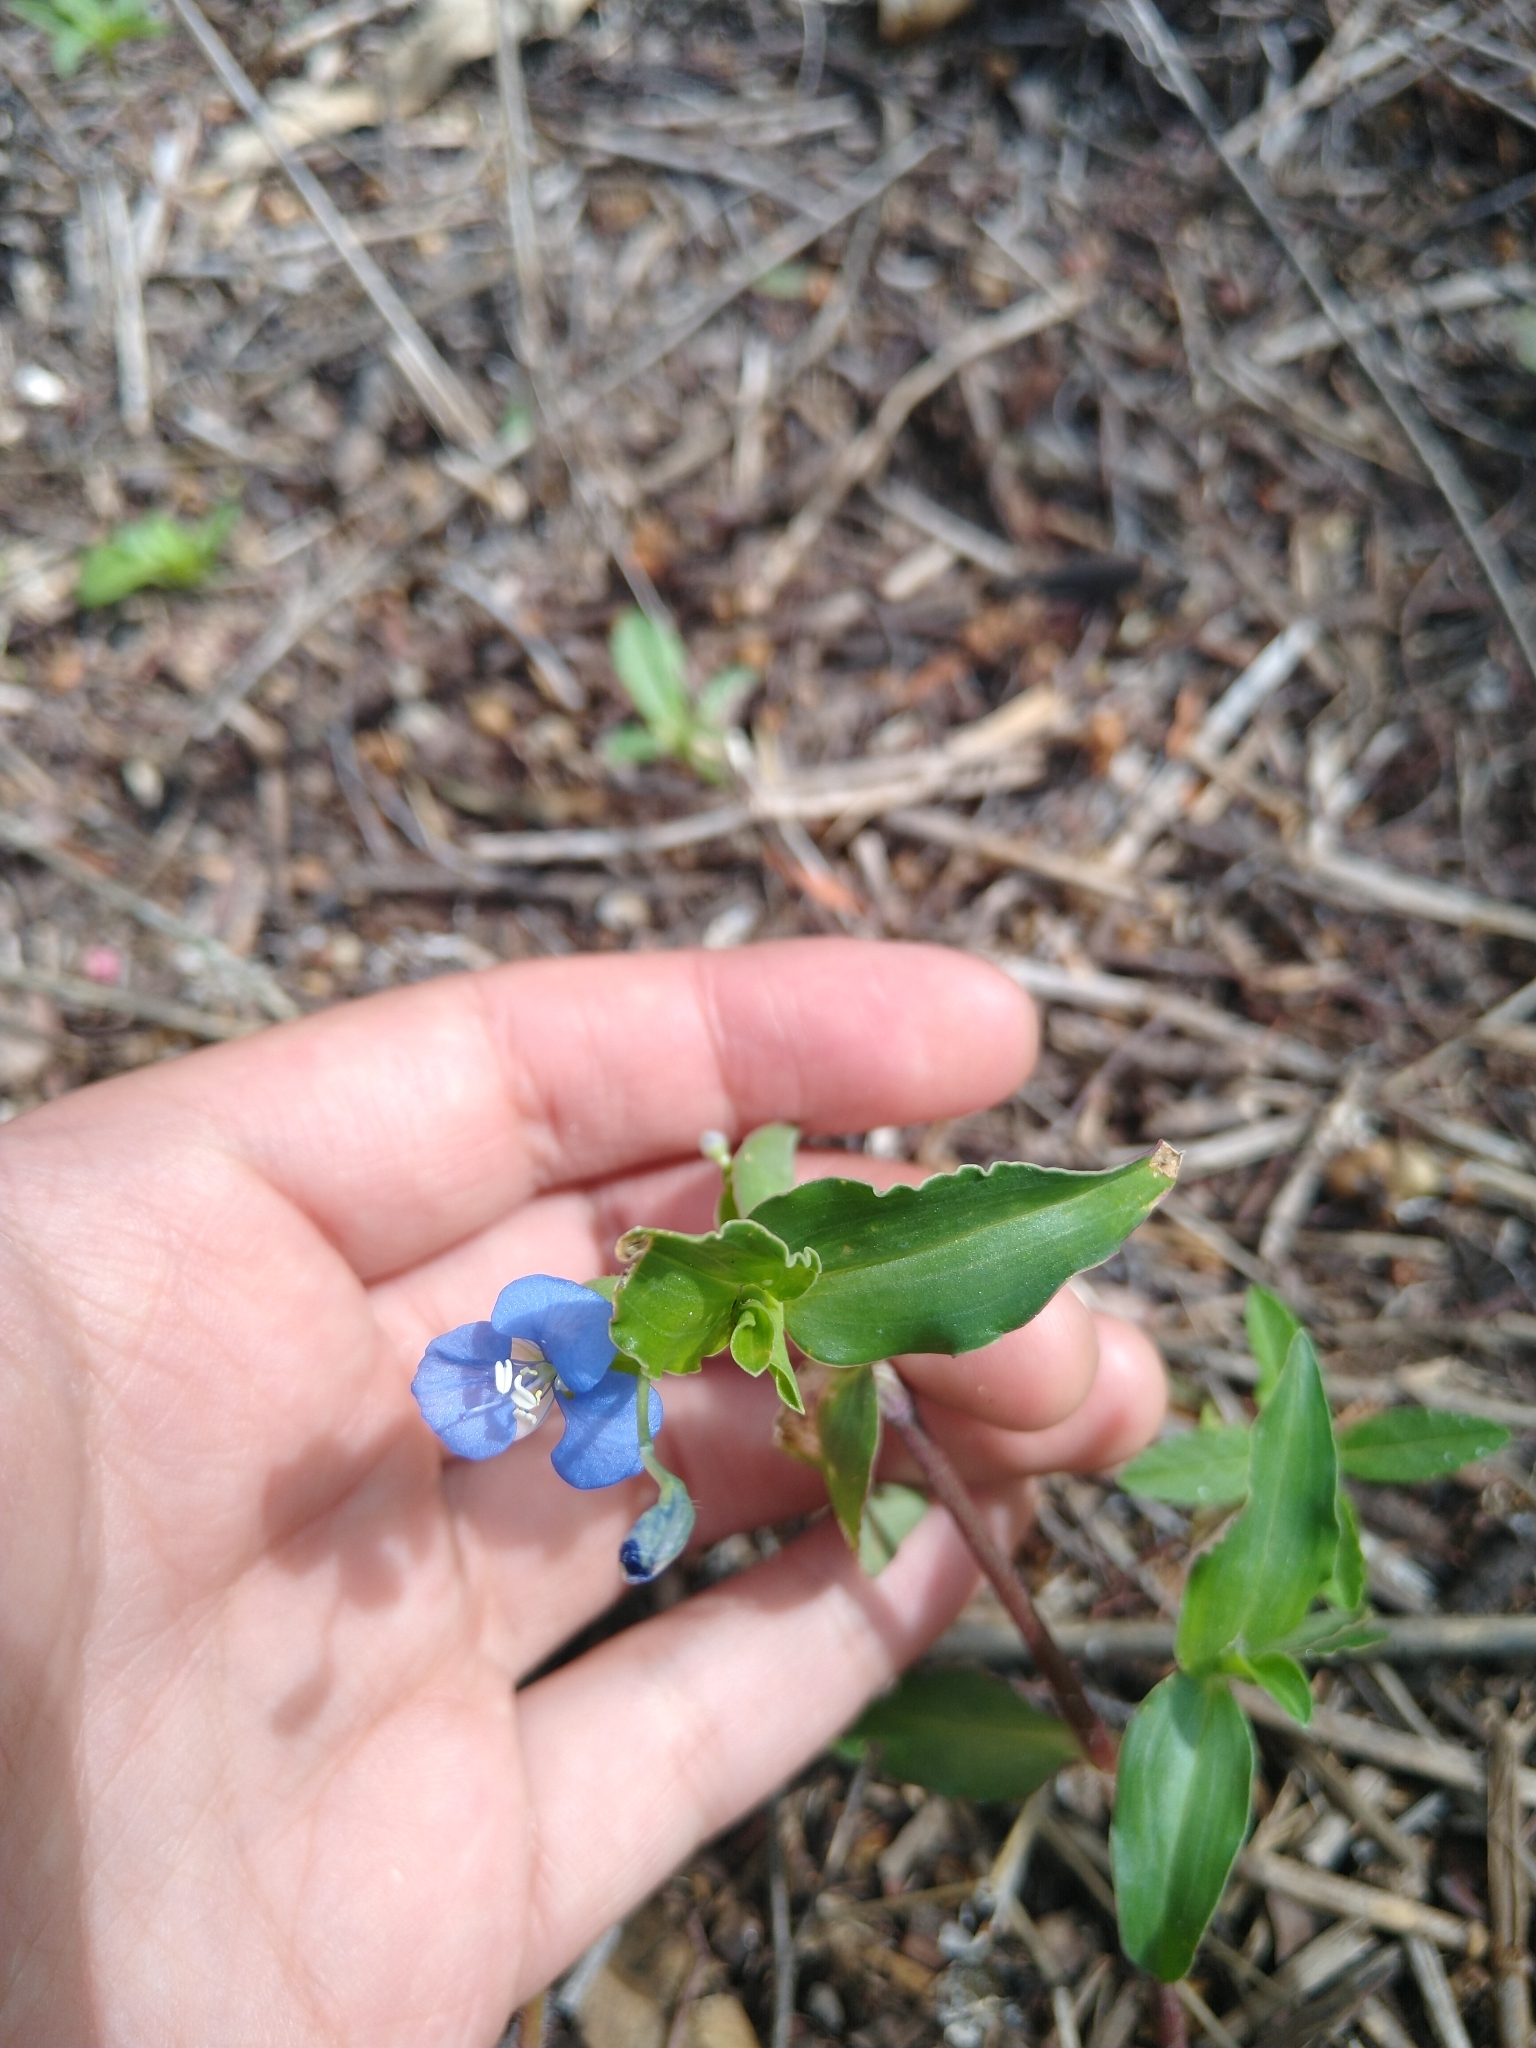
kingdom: Plantae
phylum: Tracheophyta
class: Liliopsida
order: Commelinales
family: Commelinaceae
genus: Commelina
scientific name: Commelina diffusa
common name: Climbing dayflower
